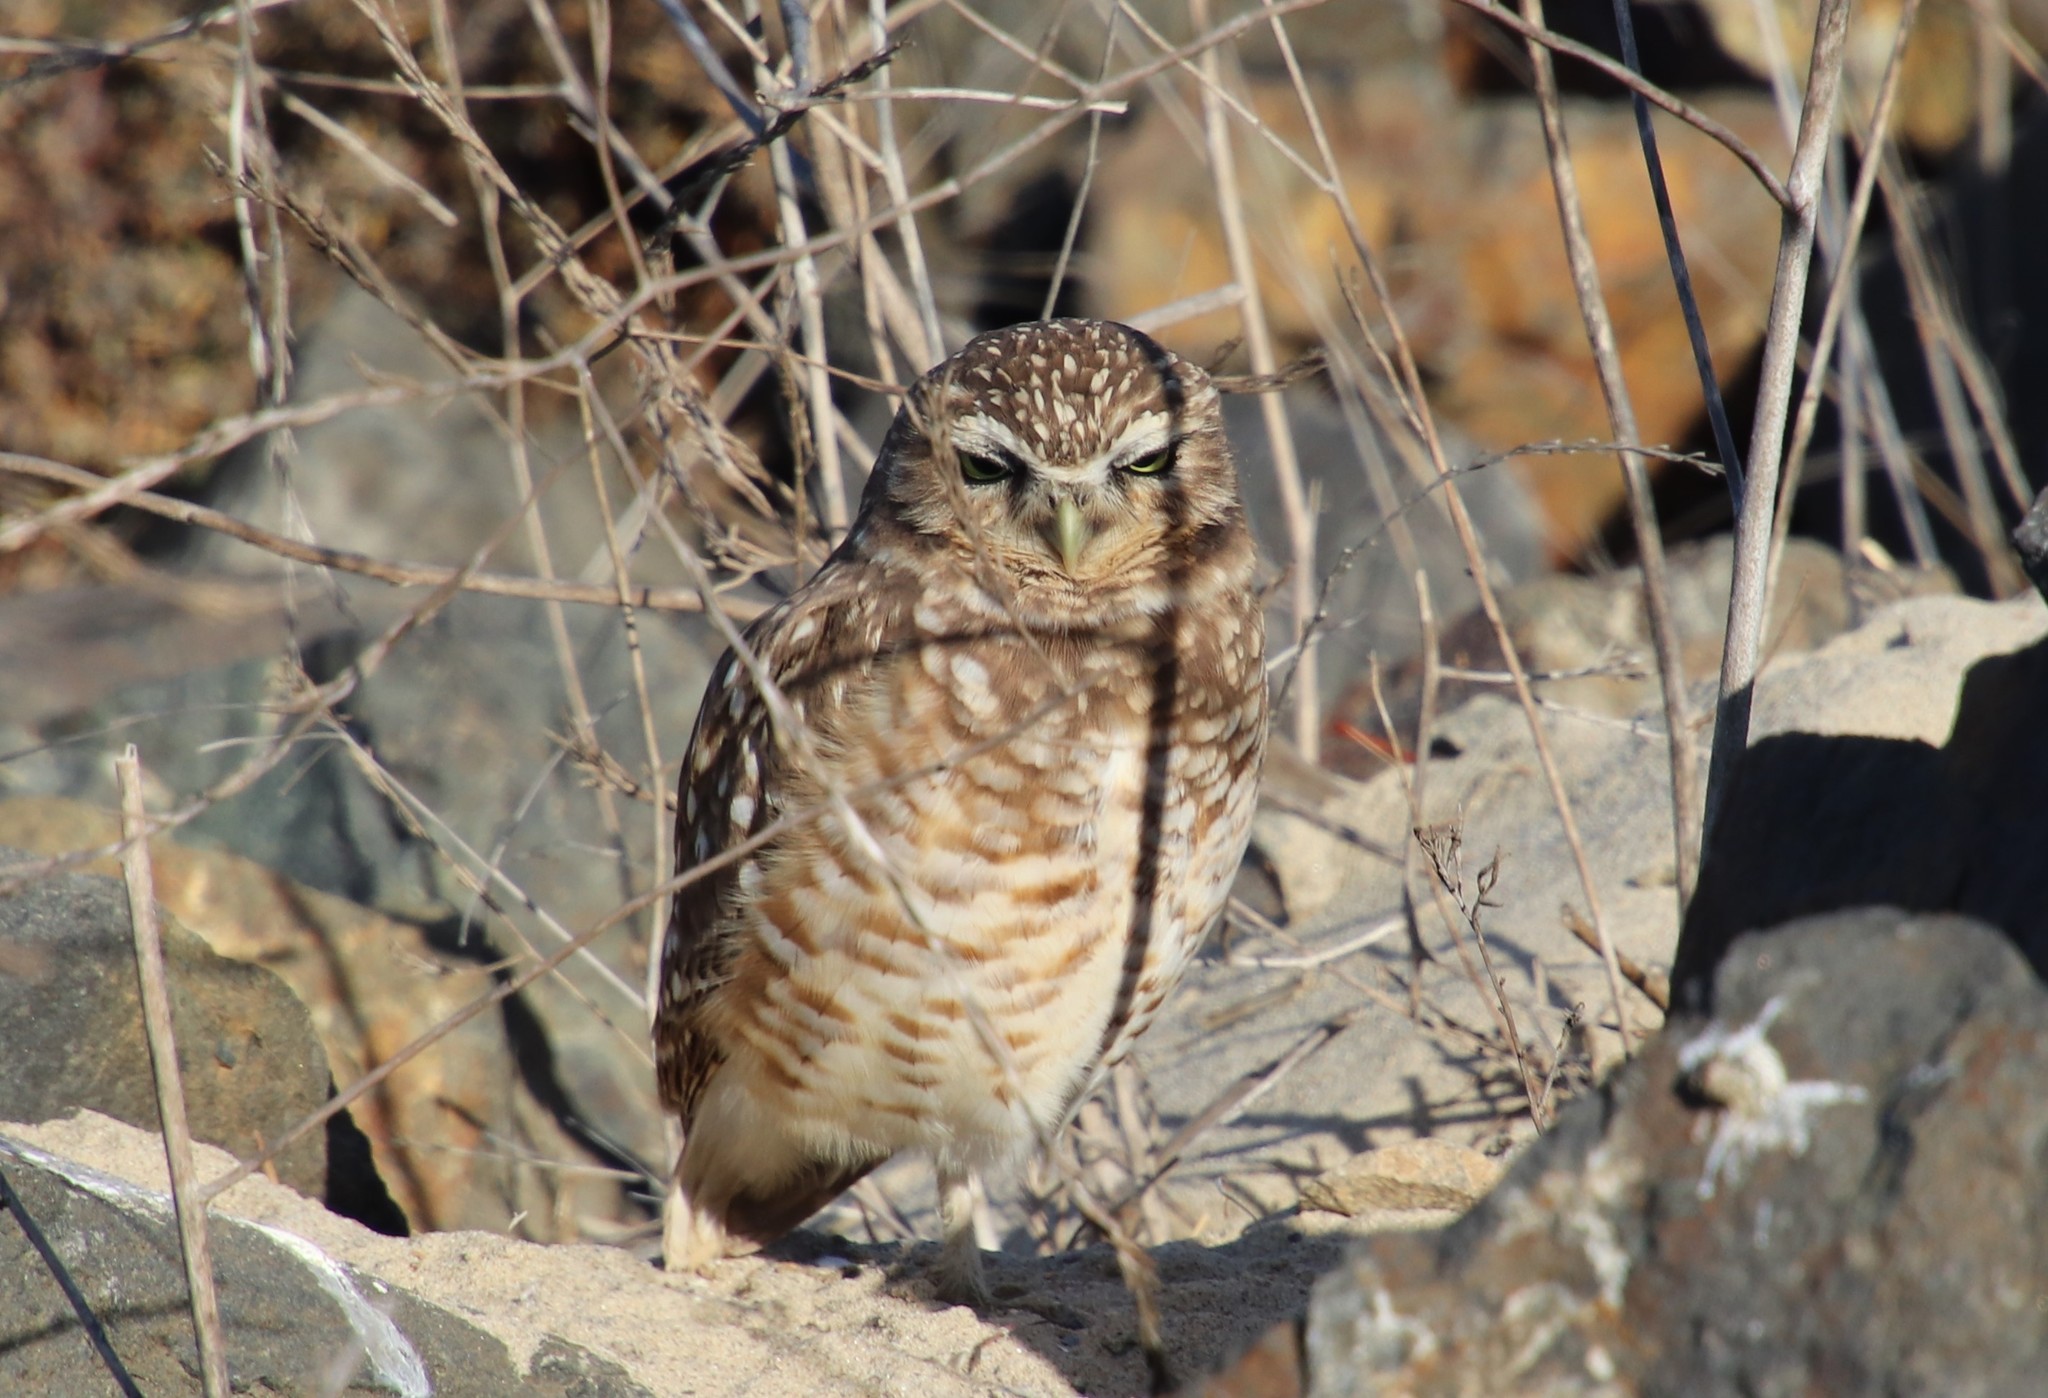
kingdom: Animalia
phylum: Chordata
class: Aves
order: Strigiformes
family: Strigidae
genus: Athene
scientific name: Athene cunicularia
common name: Burrowing owl
